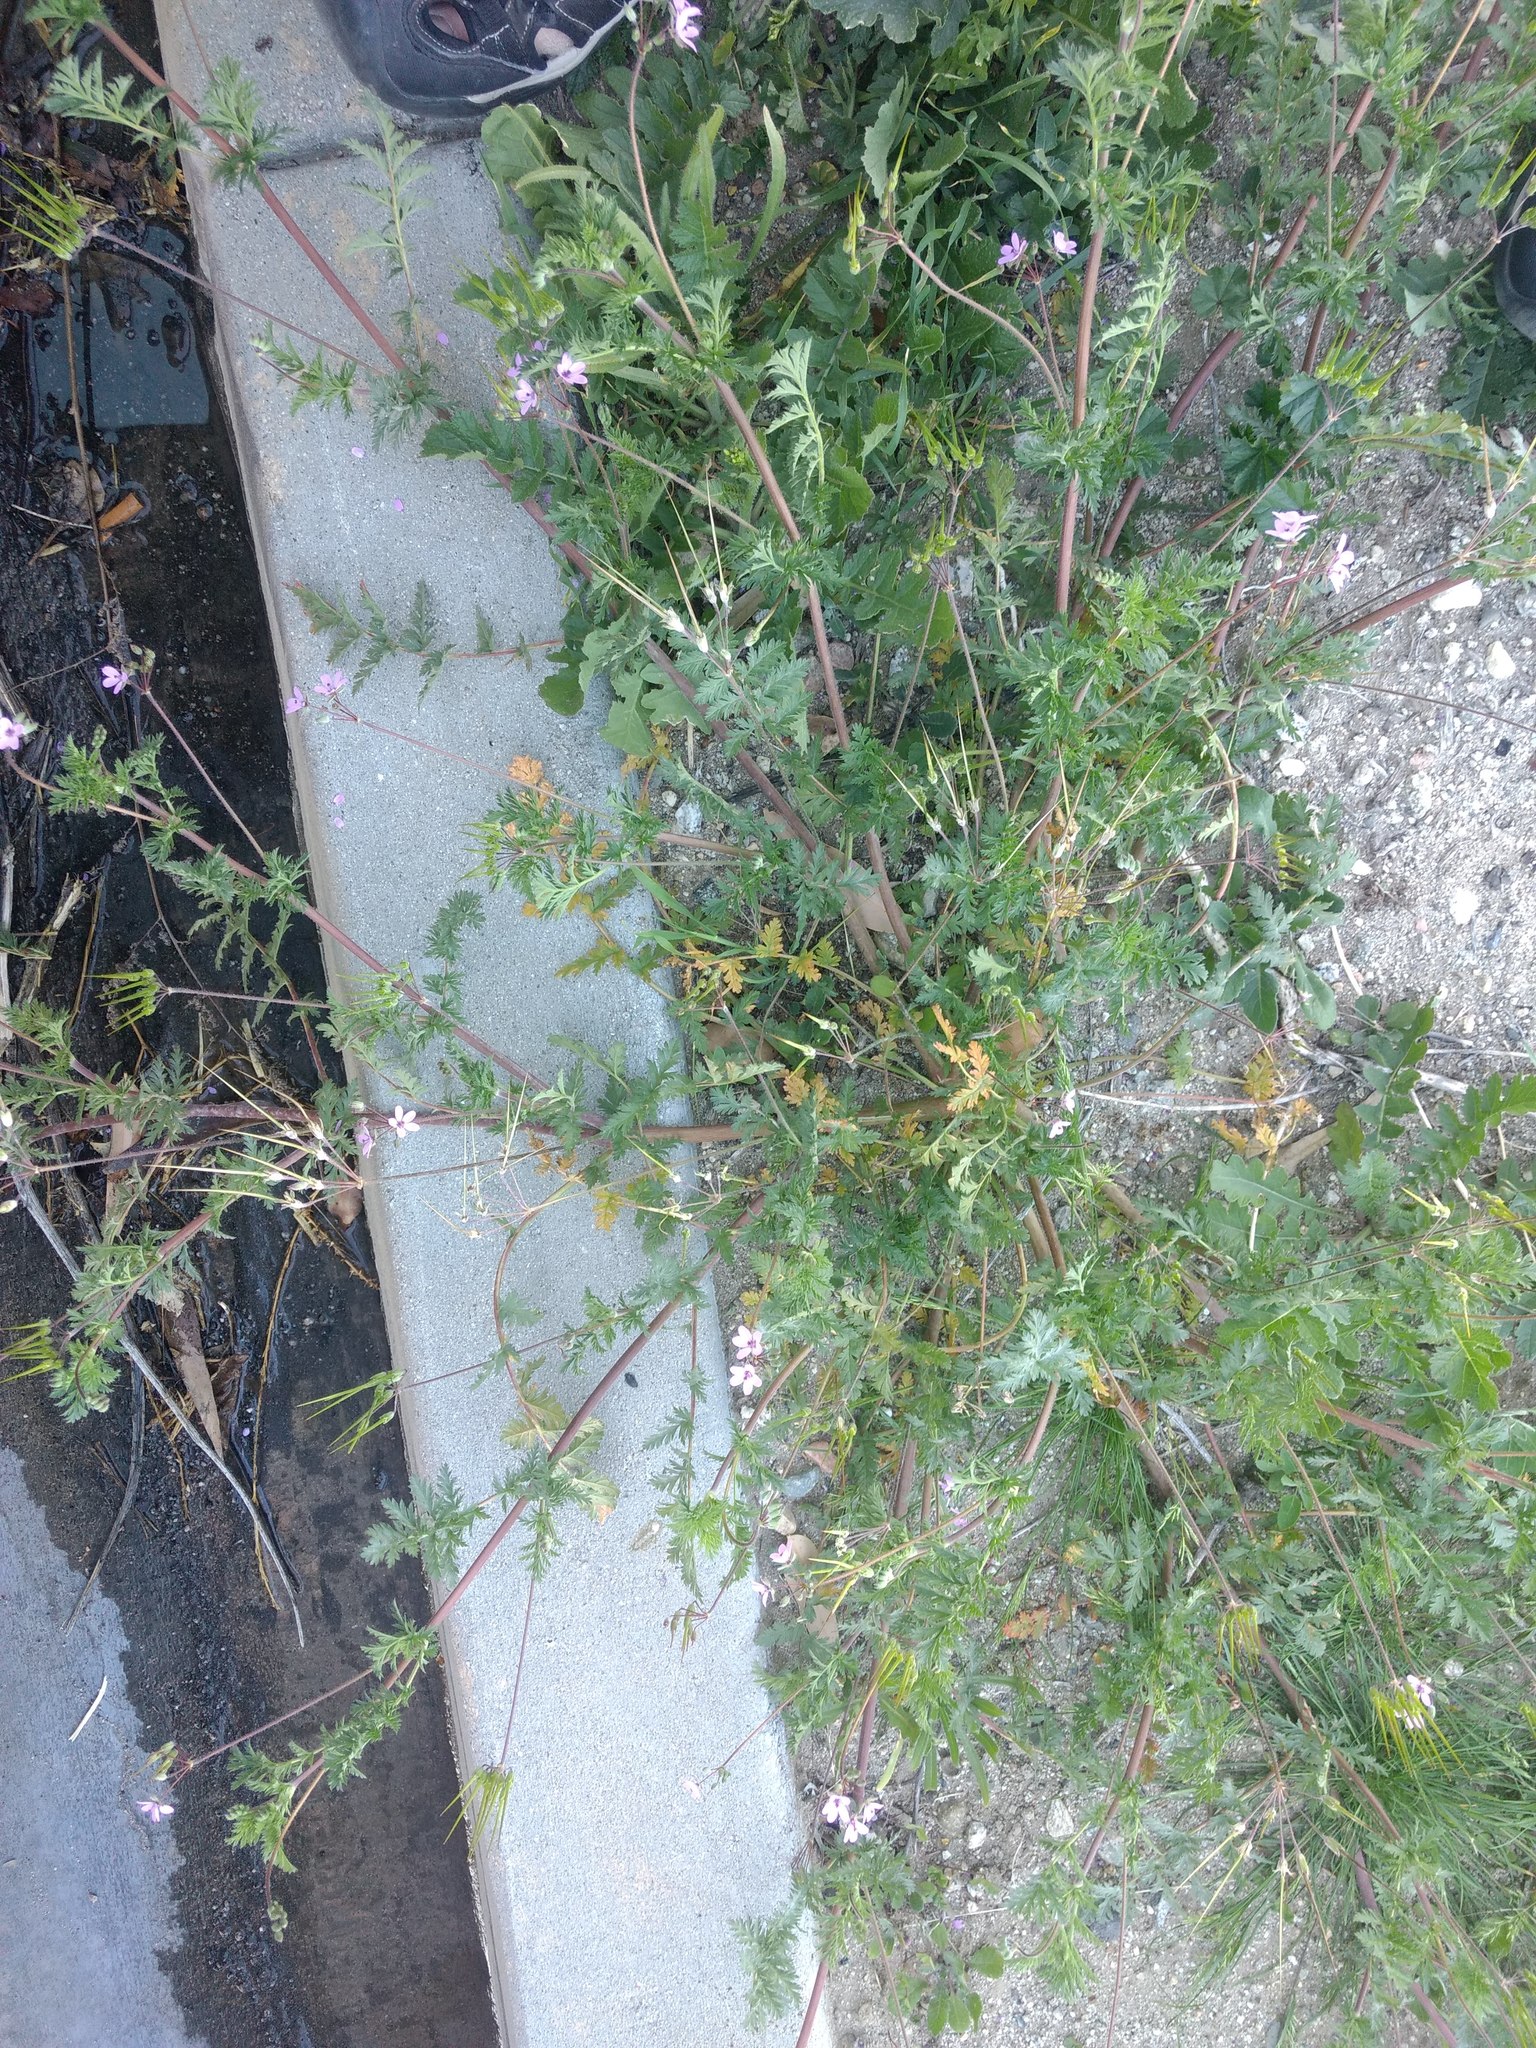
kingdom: Plantae
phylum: Tracheophyta
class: Magnoliopsida
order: Geraniales
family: Geraniaceae
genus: Erodium
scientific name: Erodium cicutarium
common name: Common stork's-bill
